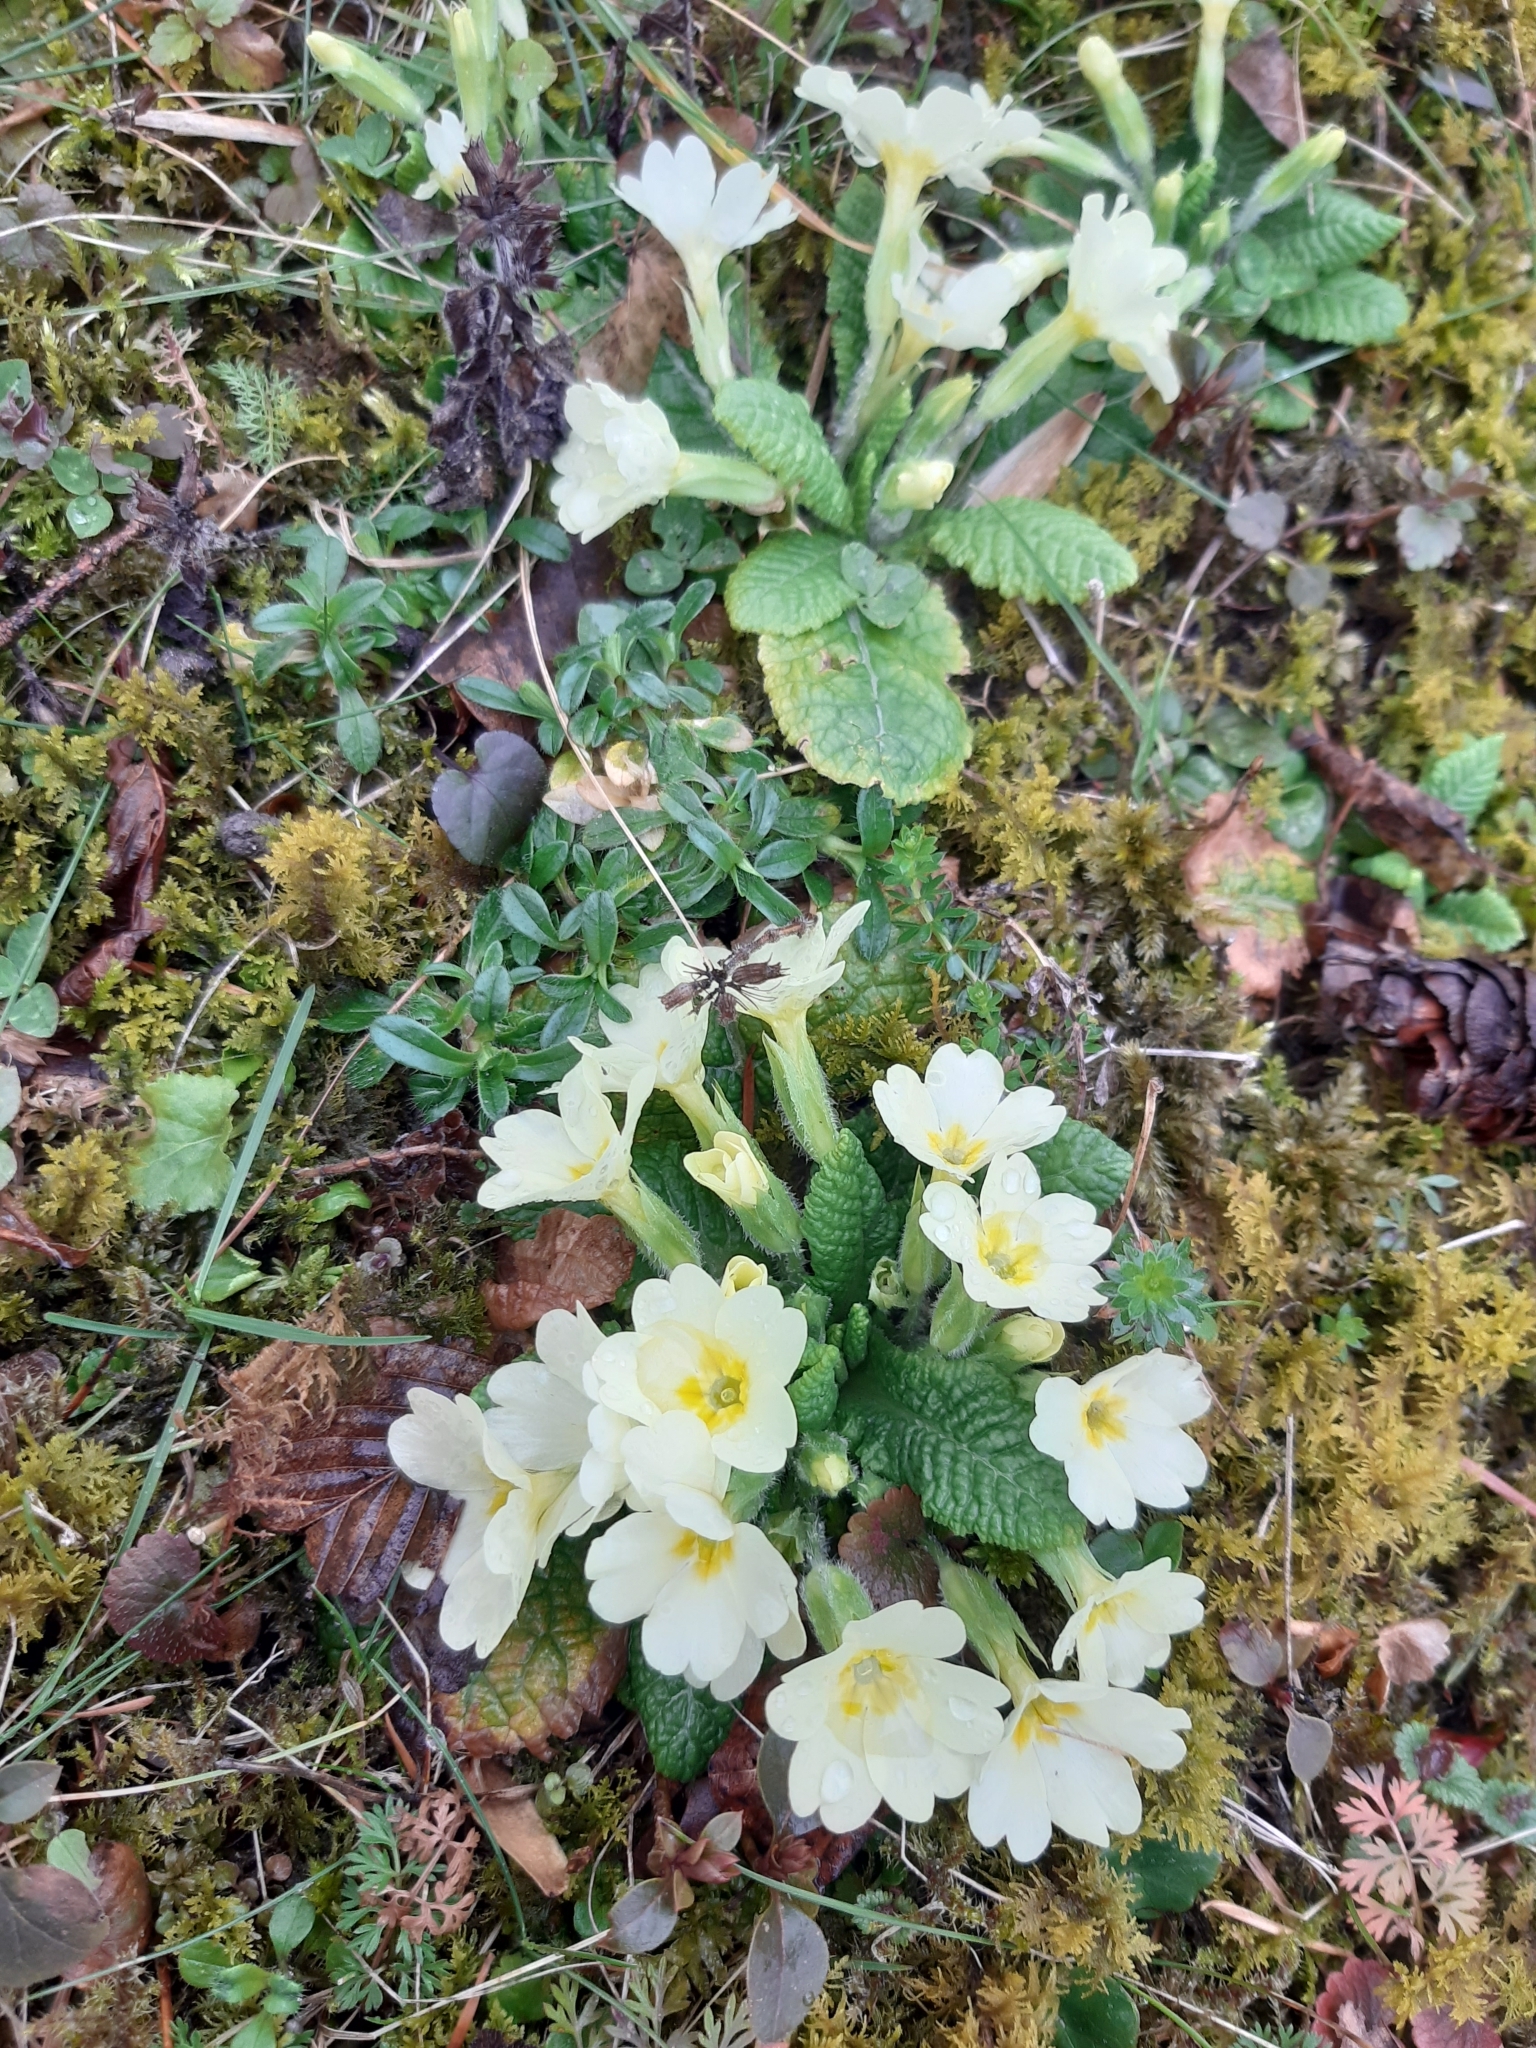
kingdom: Plantae
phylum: Tracheophyta
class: Magnoliopsida
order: Ericales
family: Primulaceae
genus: Primula
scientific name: Primula vulgaris
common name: Primrose
